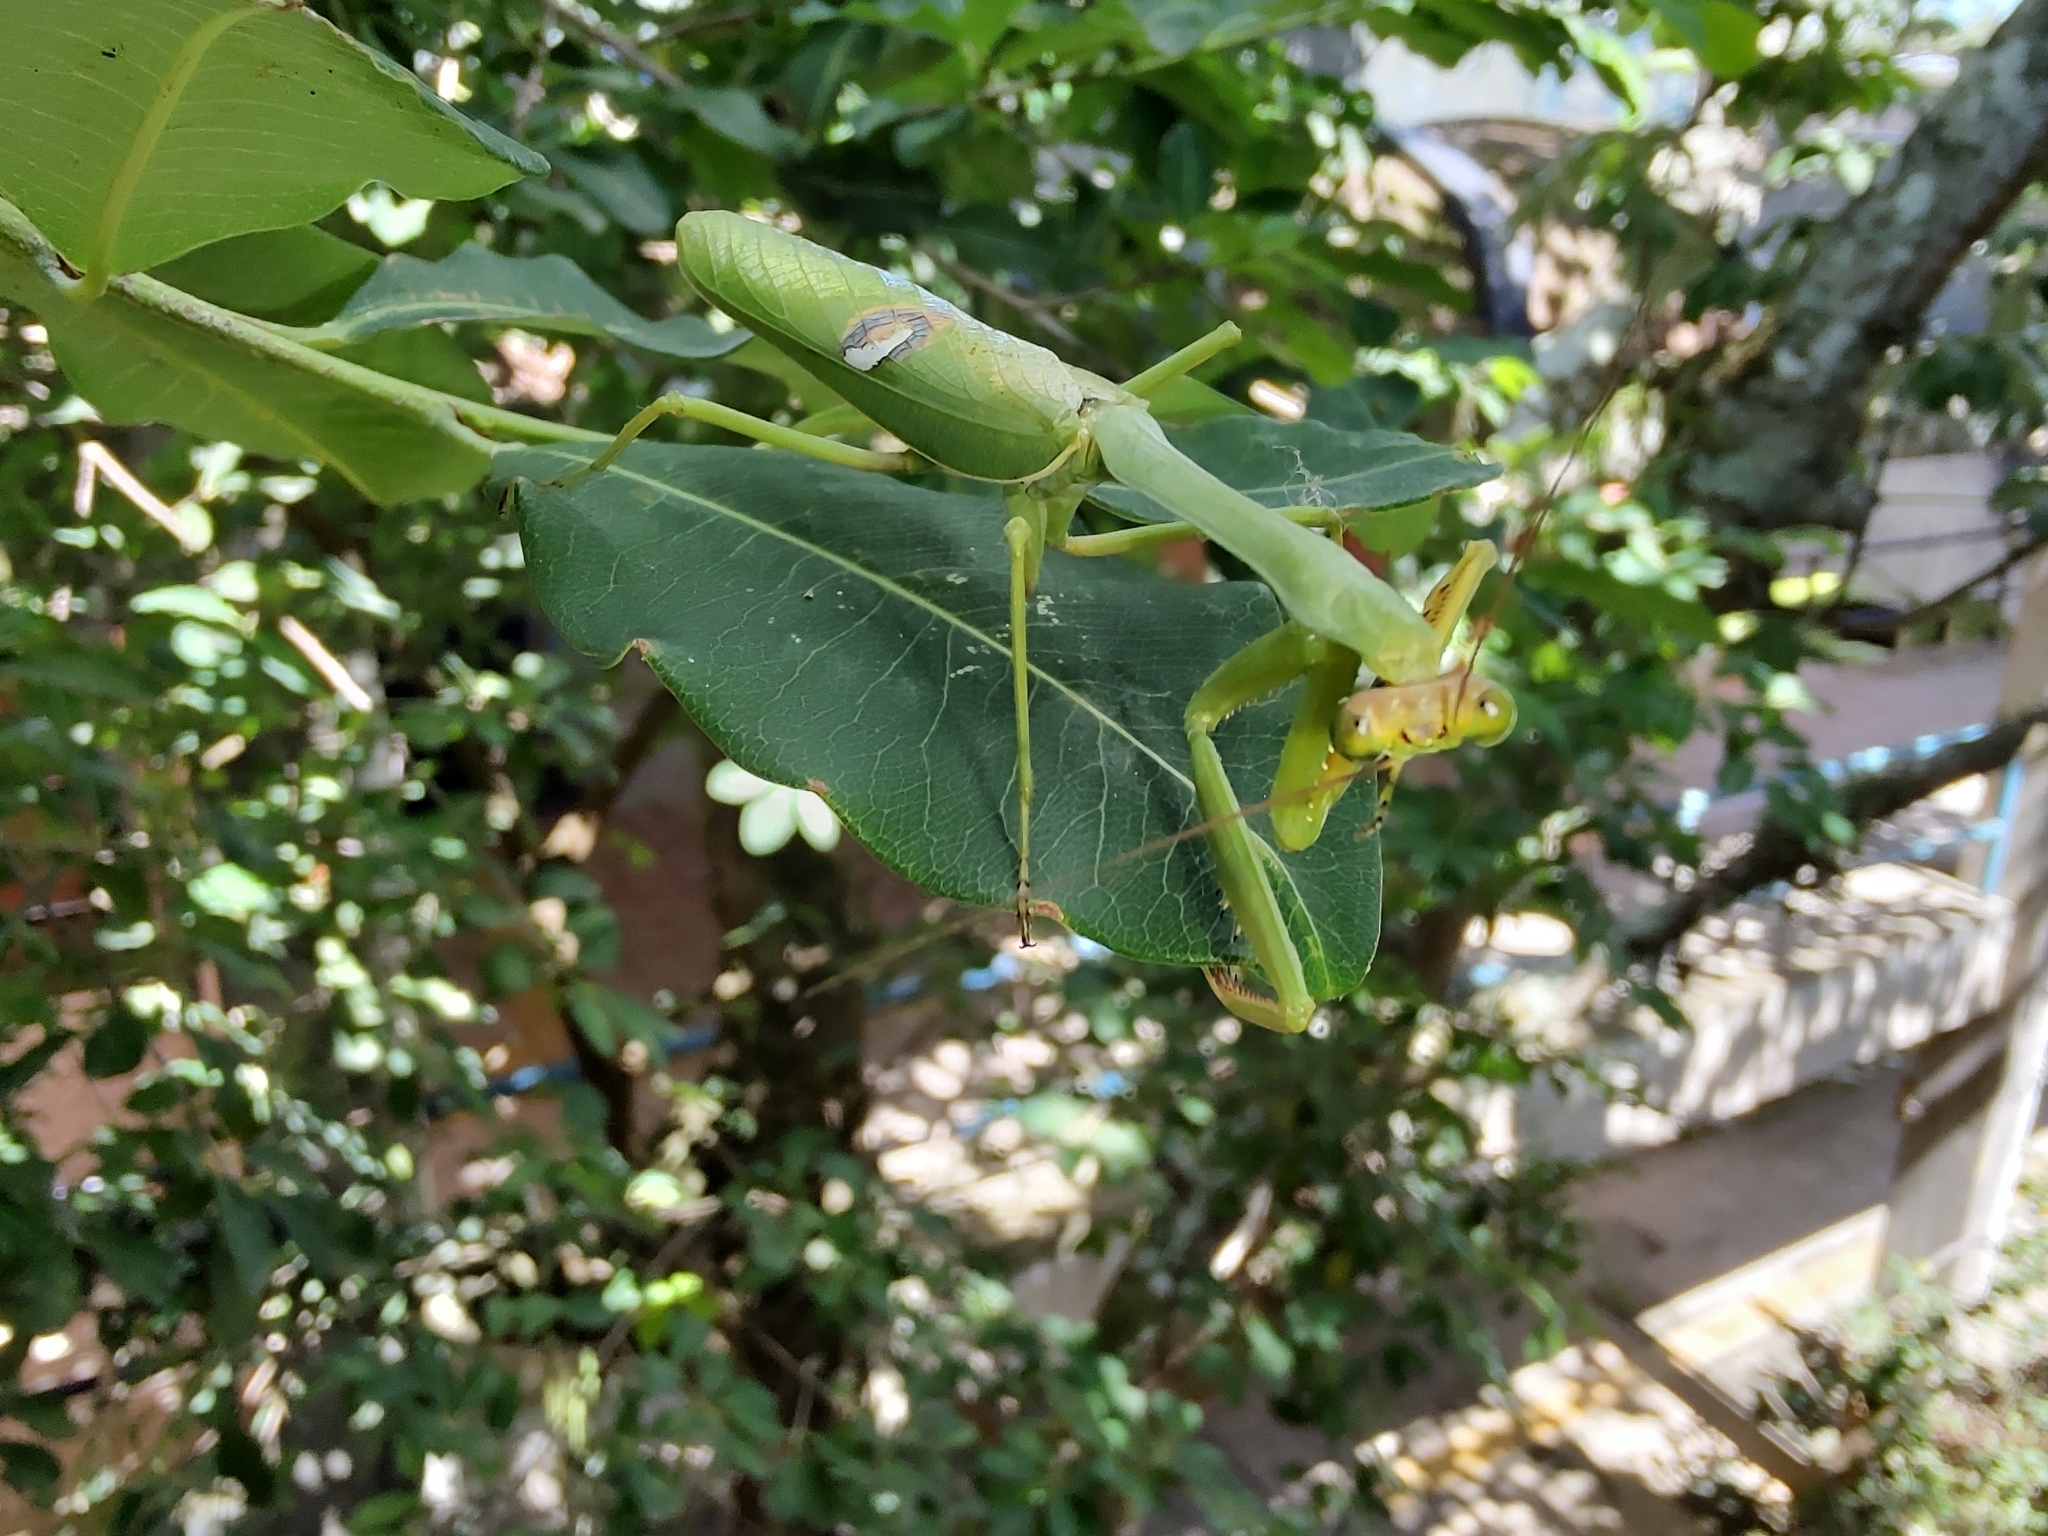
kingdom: Animalia
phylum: Arthropoda
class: Insecta
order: Mantodea
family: Mantidae
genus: Stagmatoptera
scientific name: Stagmatoptera hyaloptera
